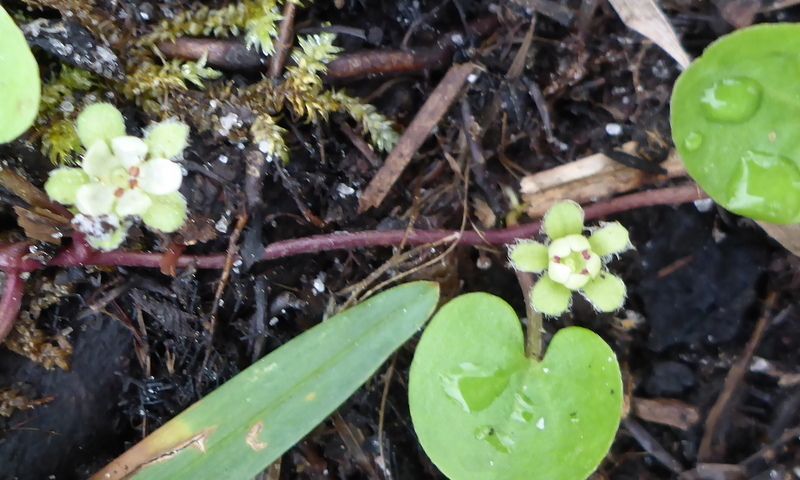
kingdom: Plantae
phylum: Tracheophyta
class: Magnoliopsida
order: Solanales
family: Convolvulaceae
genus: Dichondra
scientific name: Dichondra carolinensis
